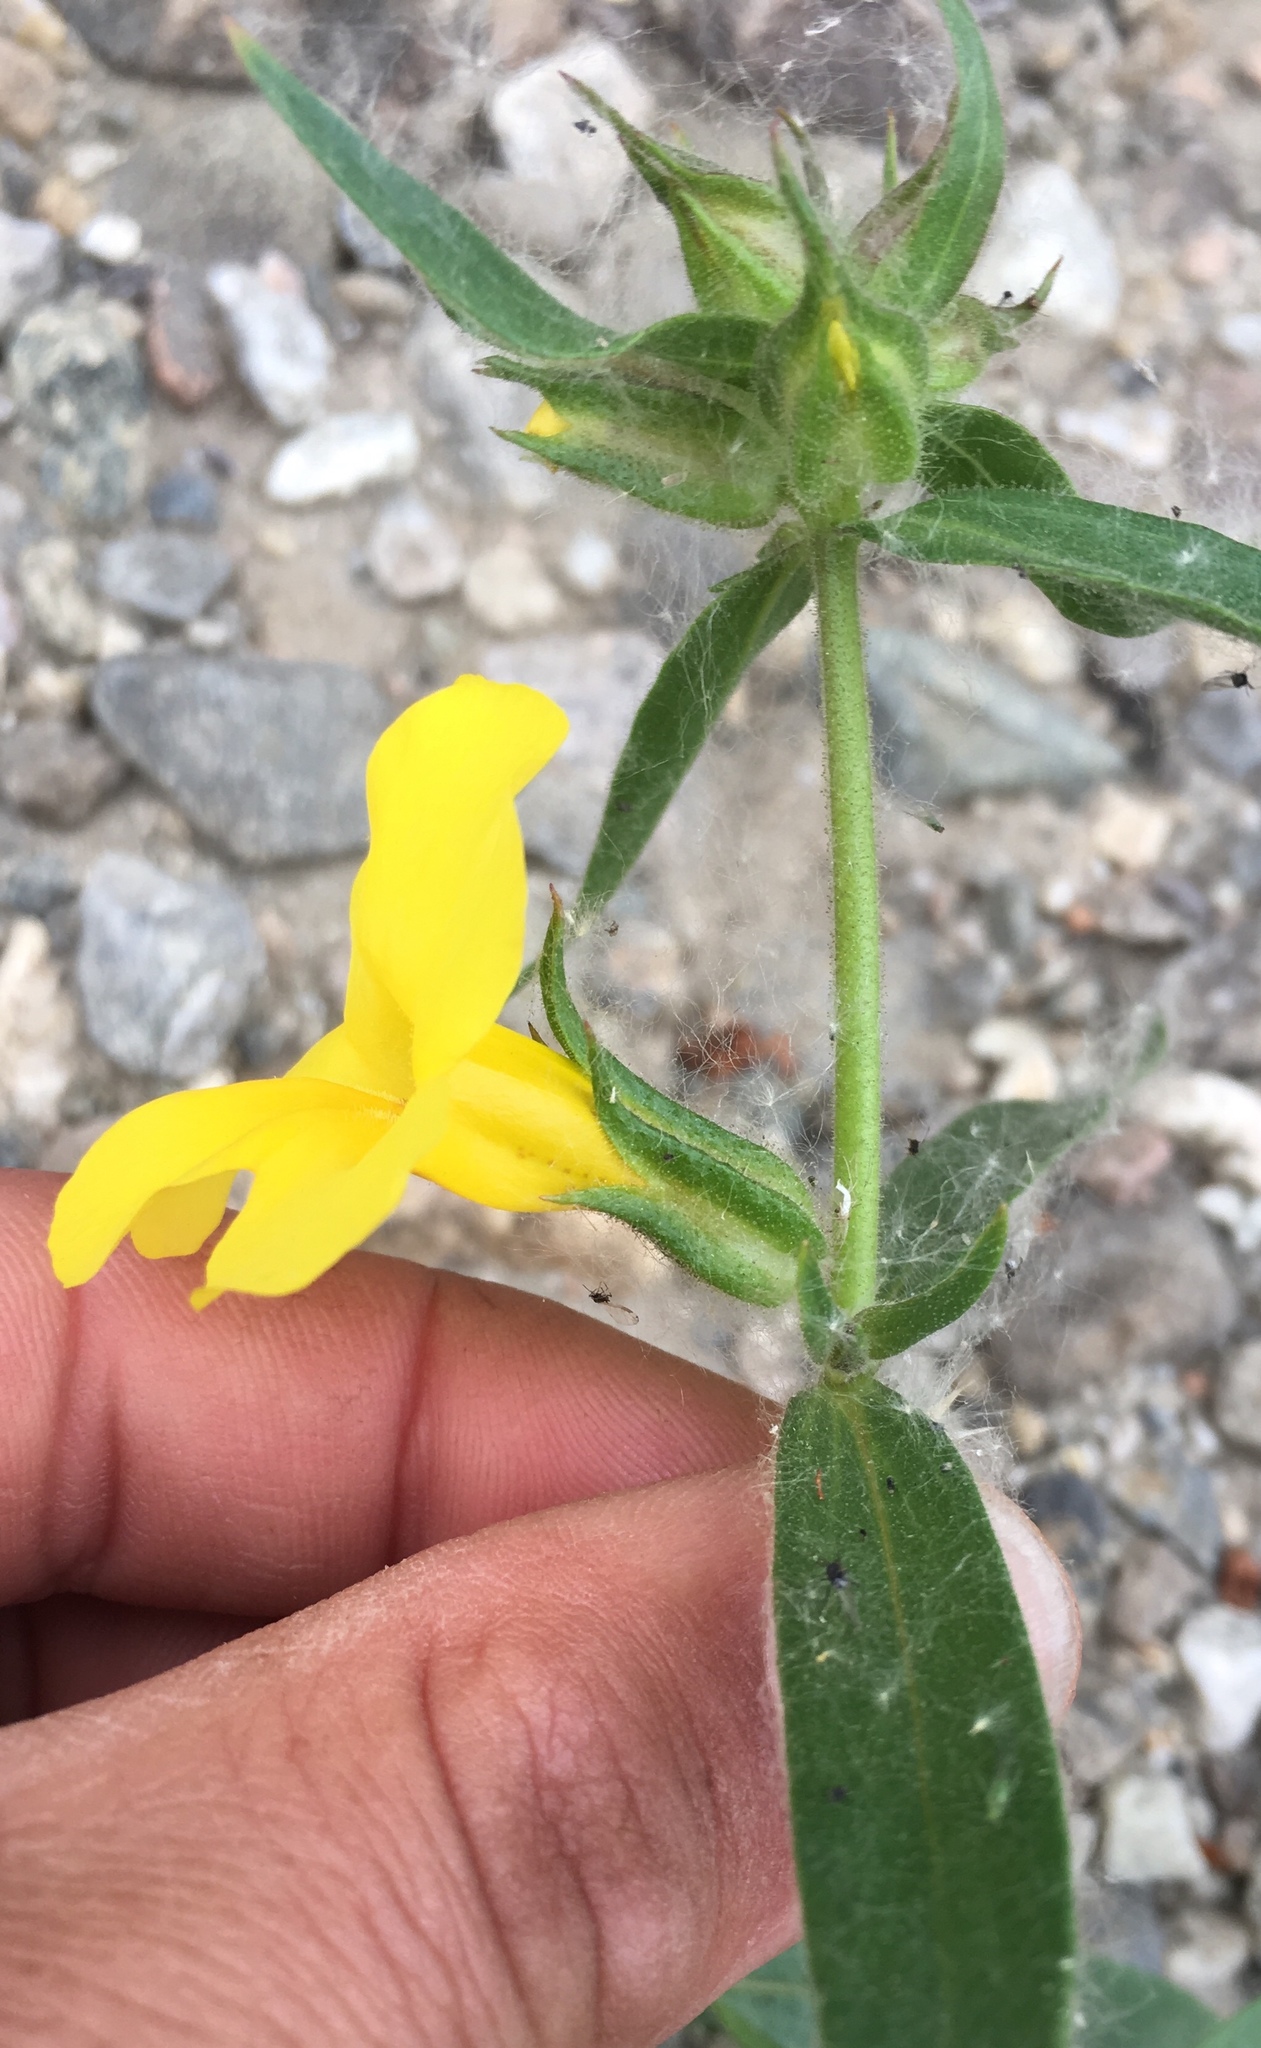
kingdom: Plantae
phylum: Tracheophyta
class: Magnoliopsida
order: Lamiales
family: Phrymaceae
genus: Diplacus
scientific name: Diplacus brevipes
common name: Wide-throat yellow monkey-flower
